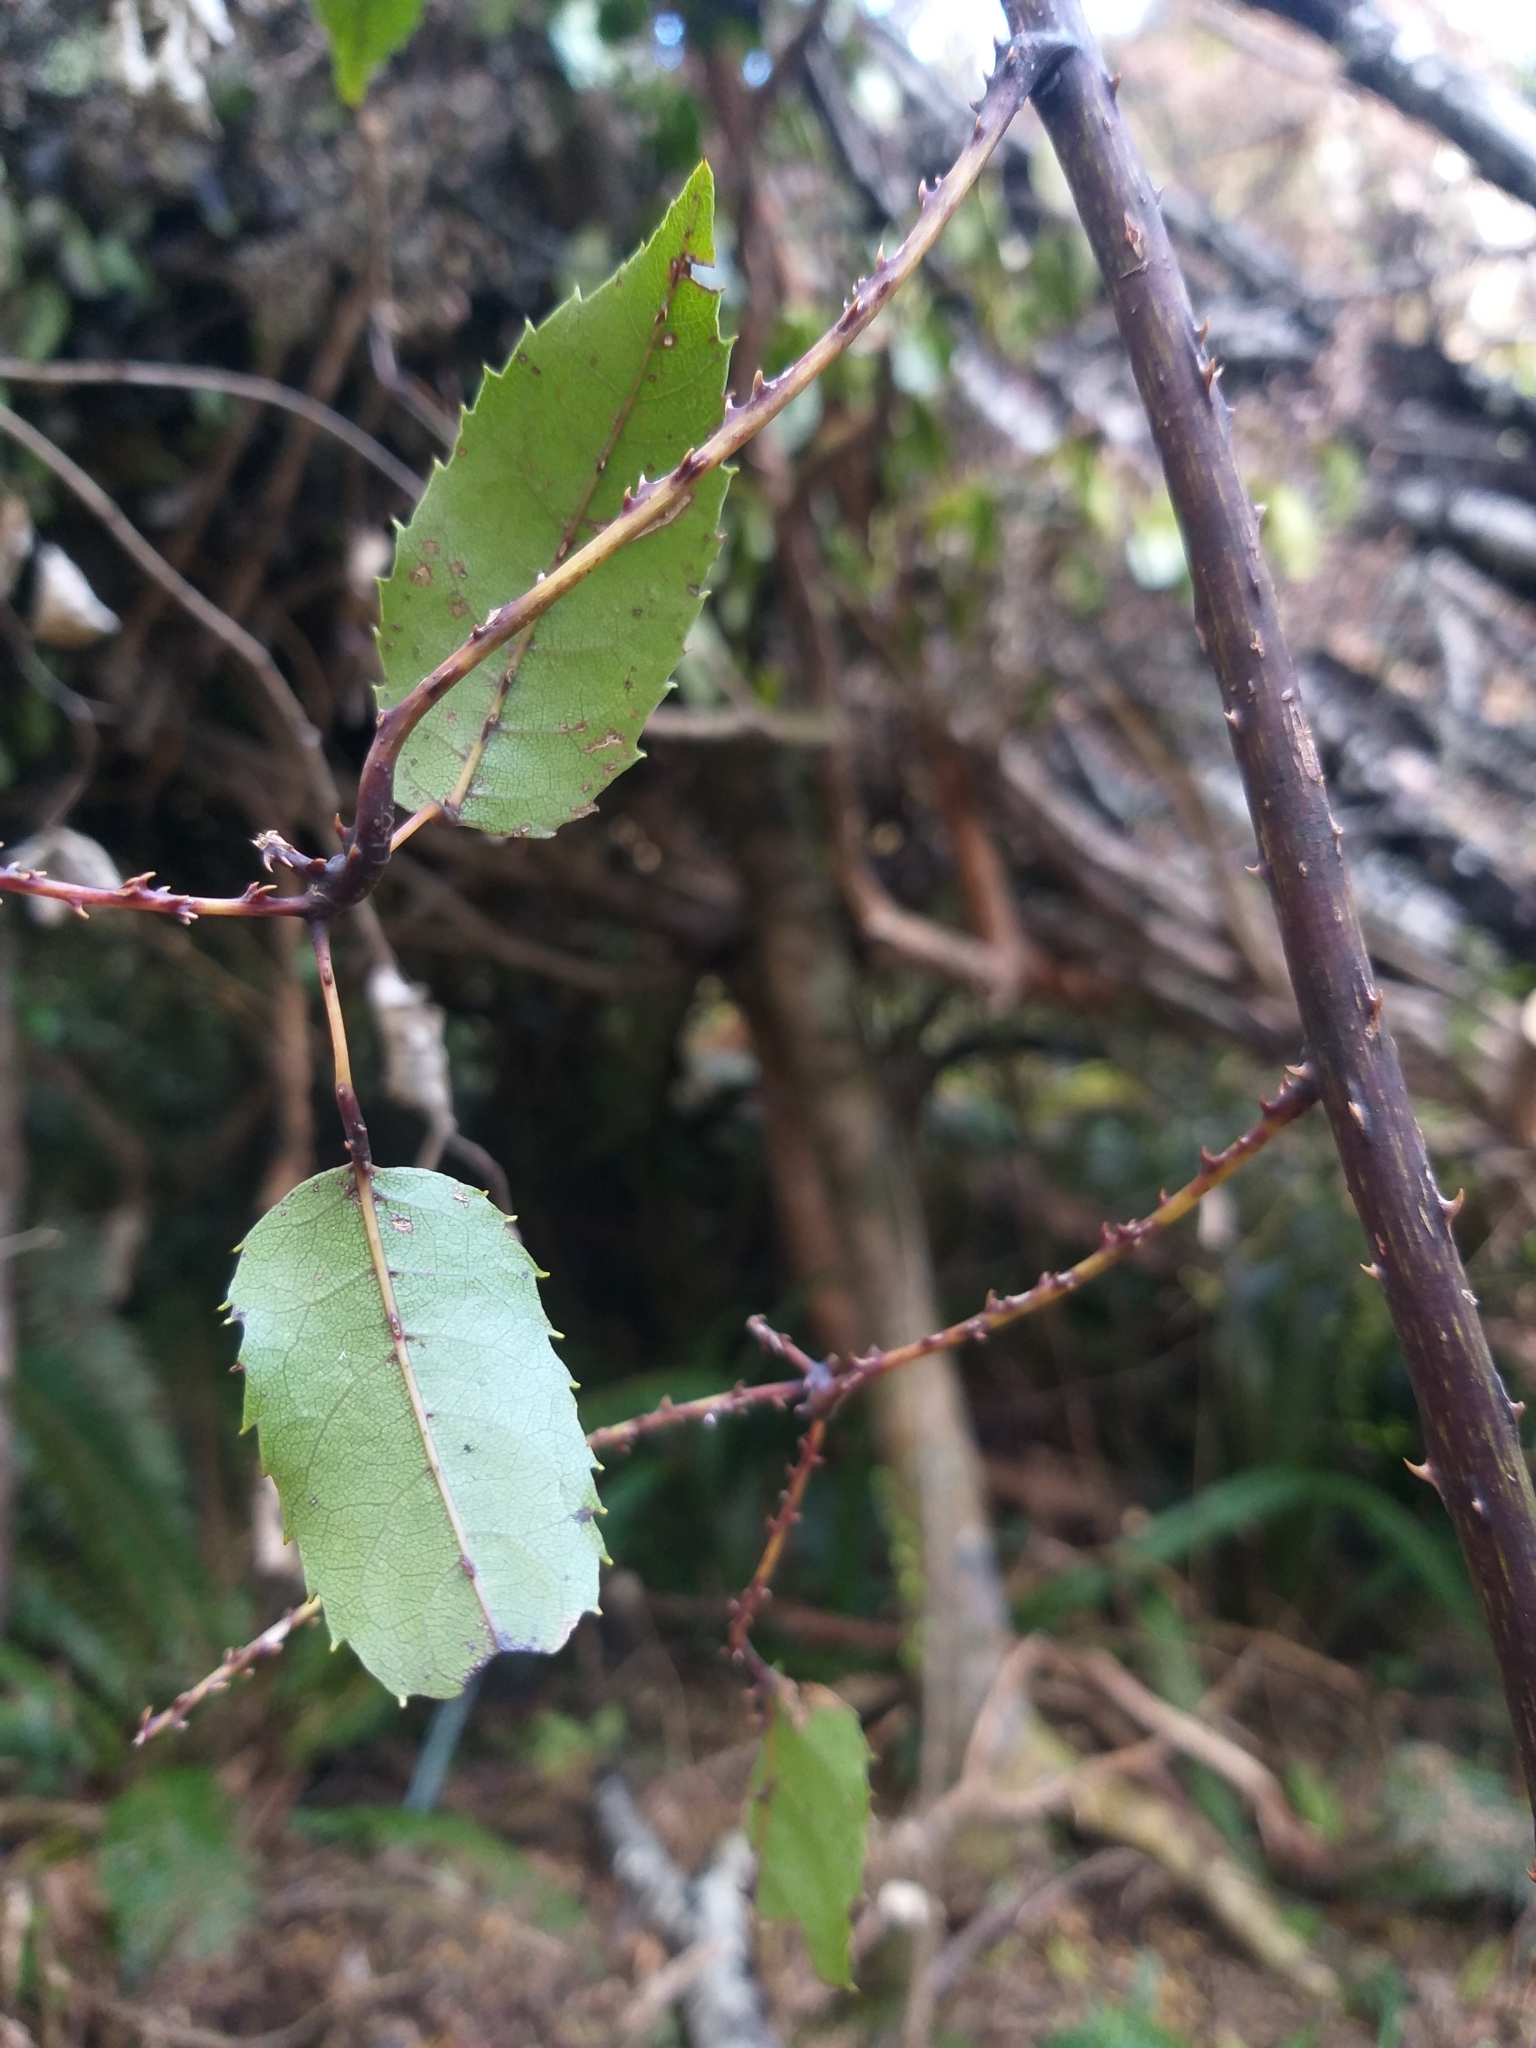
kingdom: Plantae
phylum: Tracheophyta
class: Magnoliopsida
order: Rosales
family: Rosaceae
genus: Rubus
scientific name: Rubus cissoides
